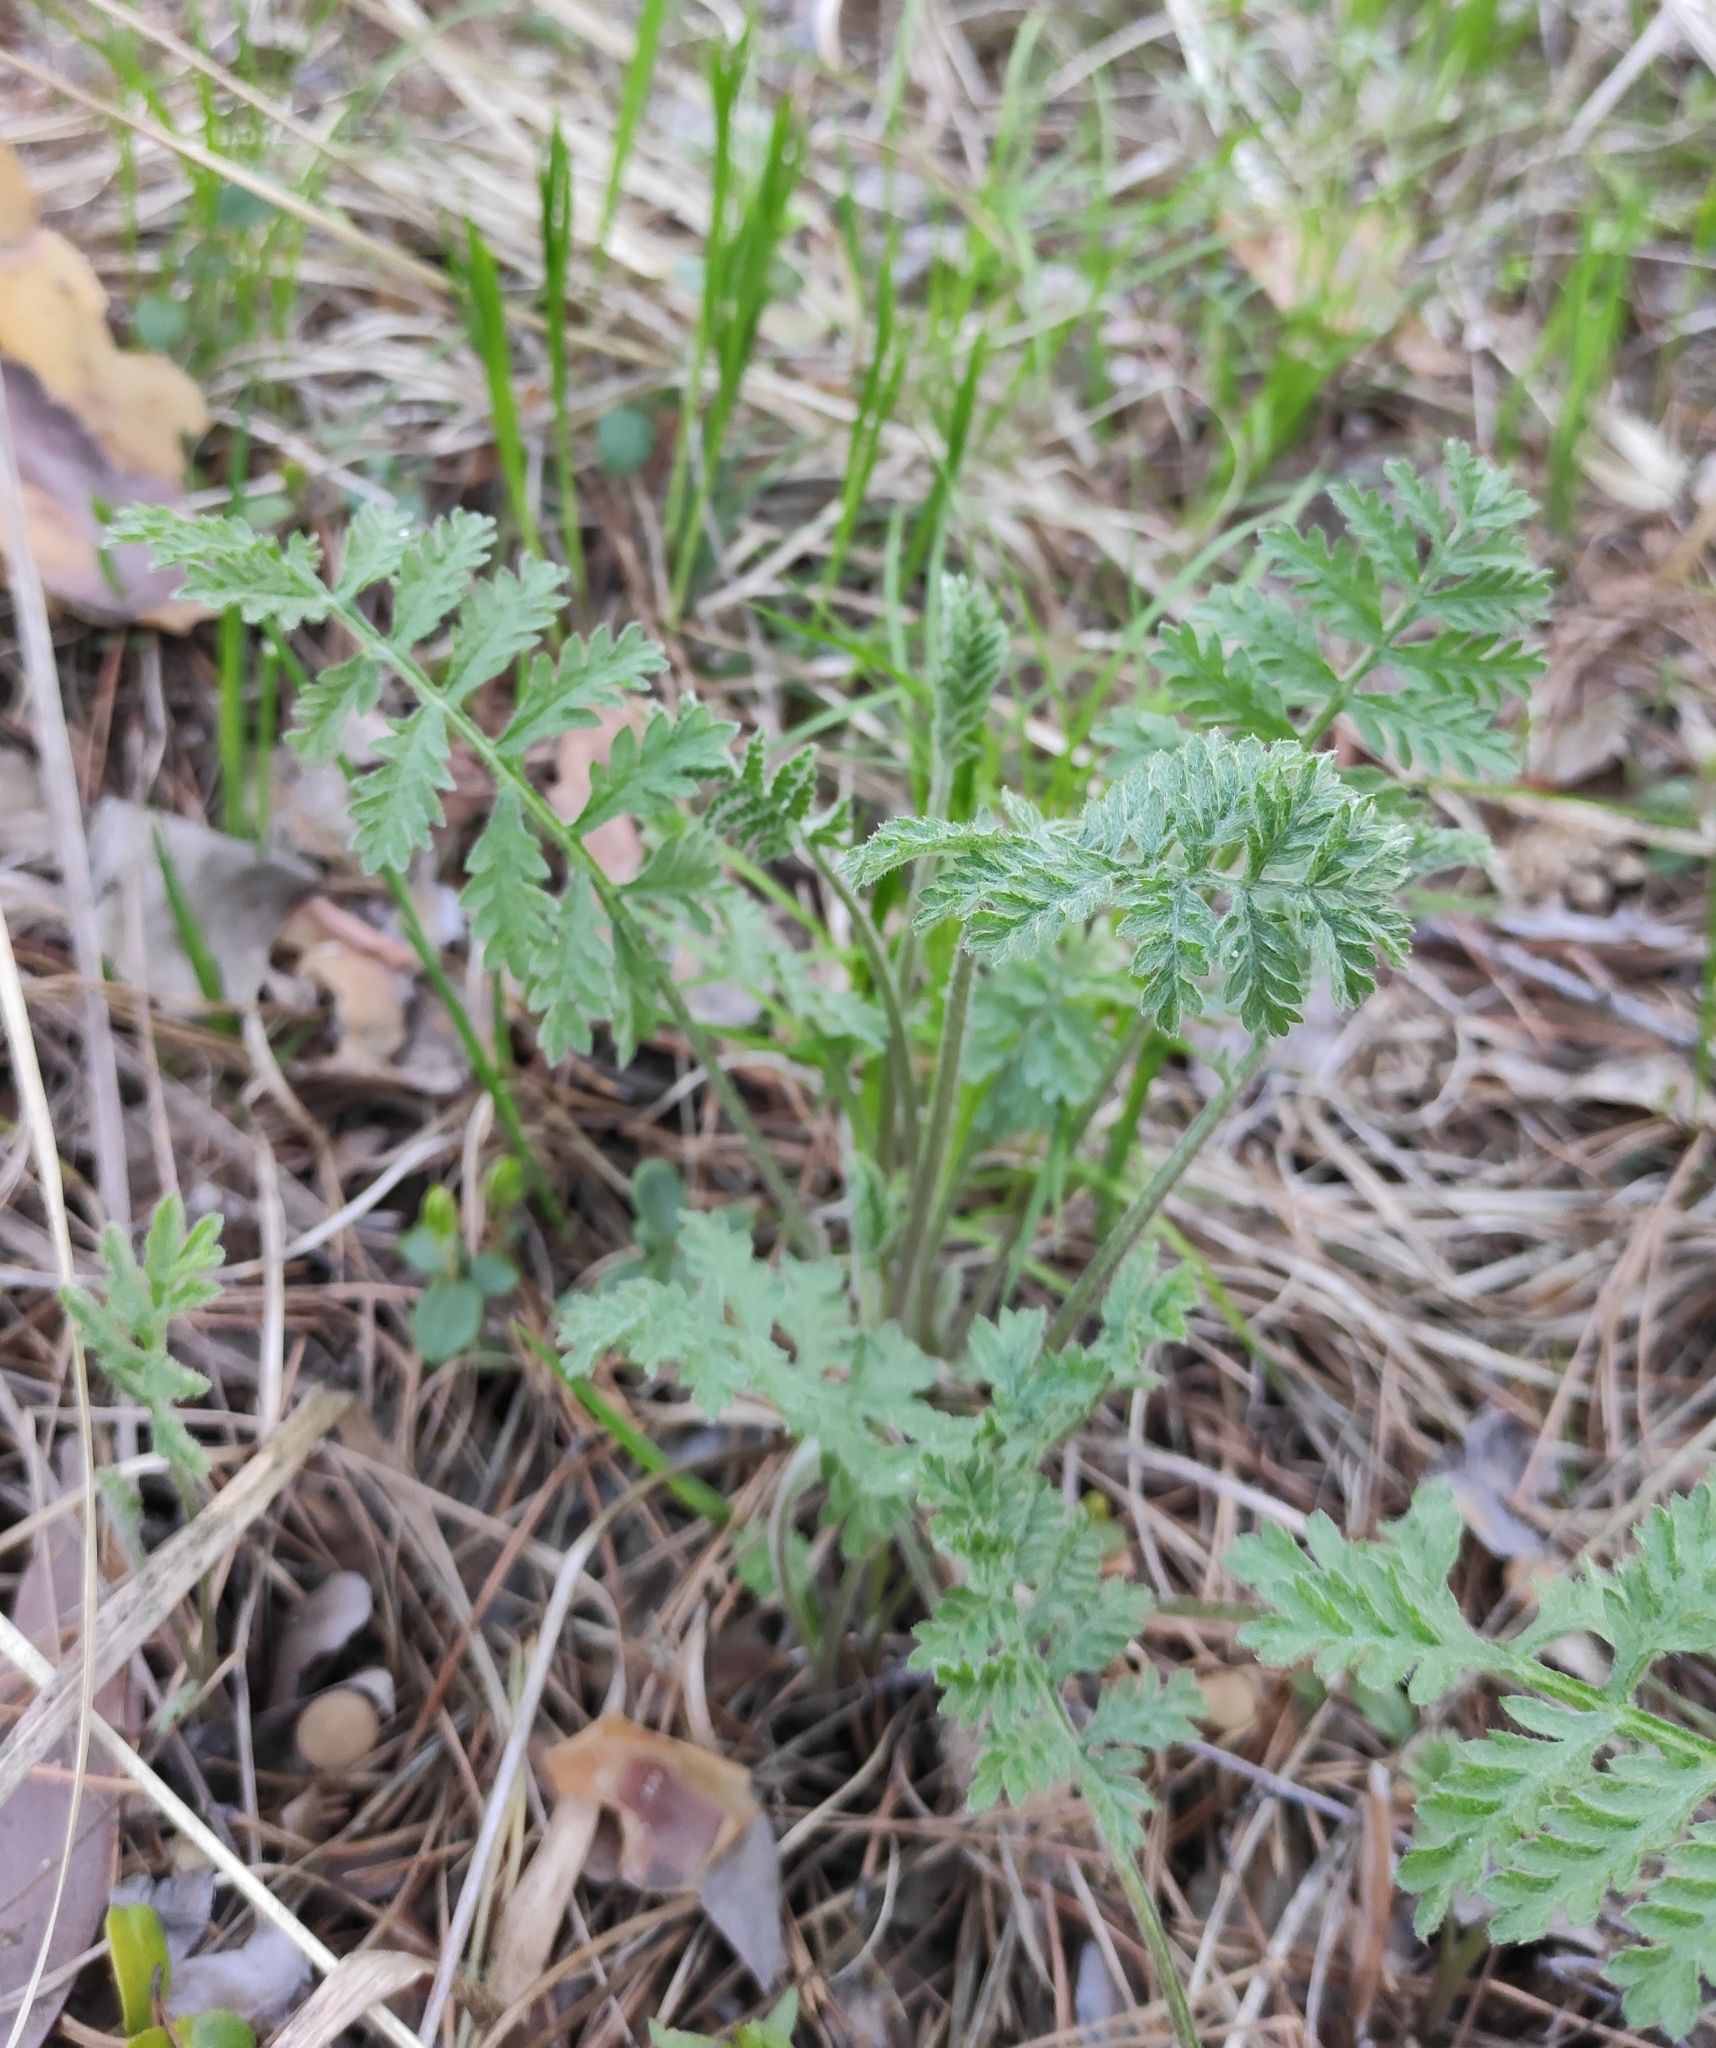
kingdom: Plantae
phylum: Tracheophyta
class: Magnoliopsida
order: Asterales
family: Asteraceae
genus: Artemisia
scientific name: Artemisia tanacetifolia
